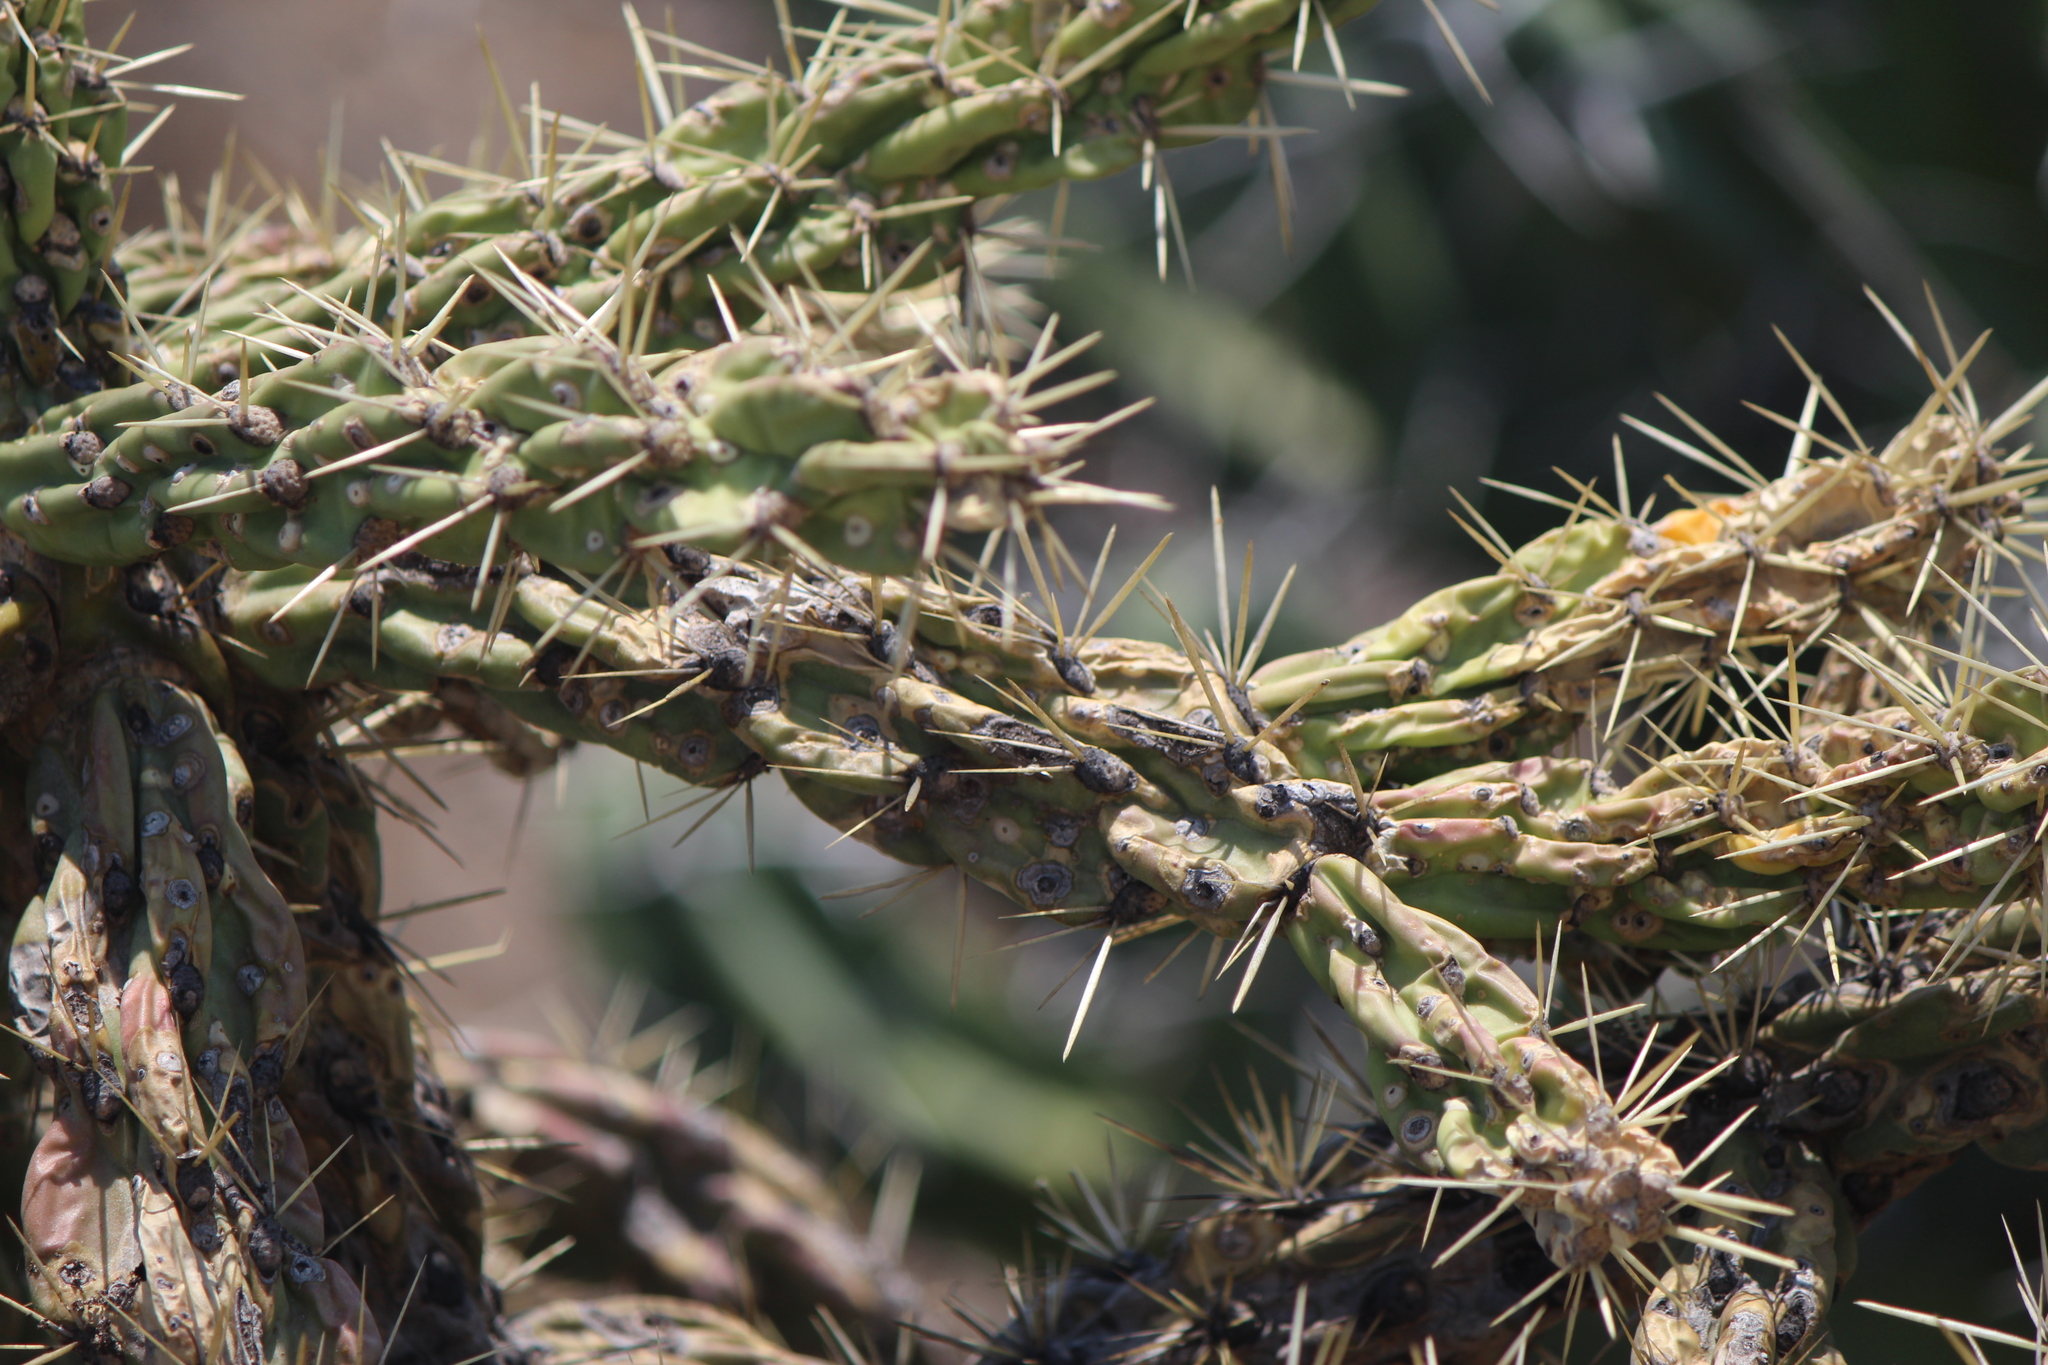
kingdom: Plantae
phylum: Tracheophyta
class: Magnoliopsida
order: Caryophyllales
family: Cactaceae
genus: Cylindropuntia
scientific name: Cylindropuntia imbricata
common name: Candelabrum cactus
